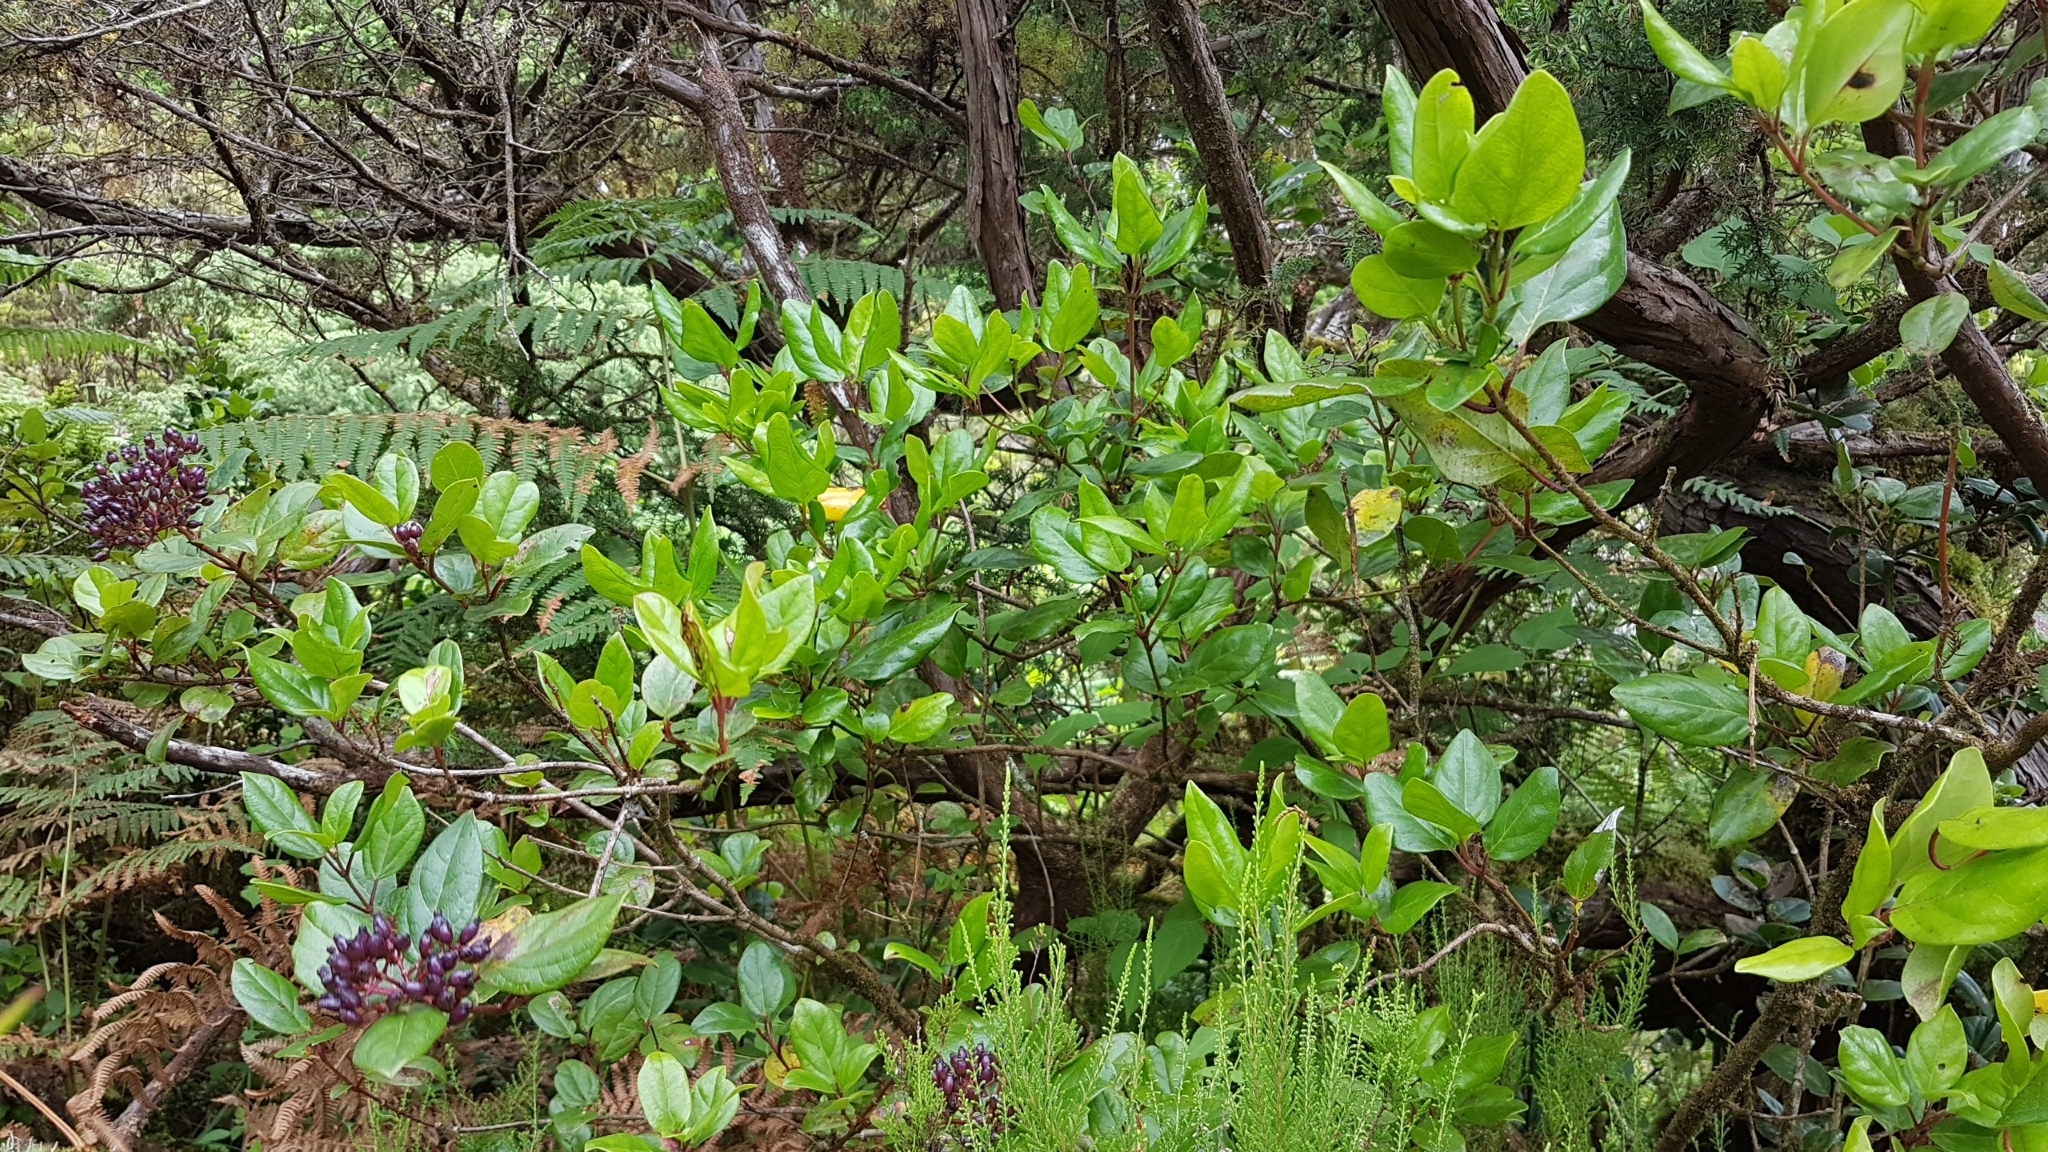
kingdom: Plantae
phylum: Tracheophyta
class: Magnoliopsida
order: Dipsacales
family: Viburnaceae
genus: Viburnum
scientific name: Viburnum treleasei
